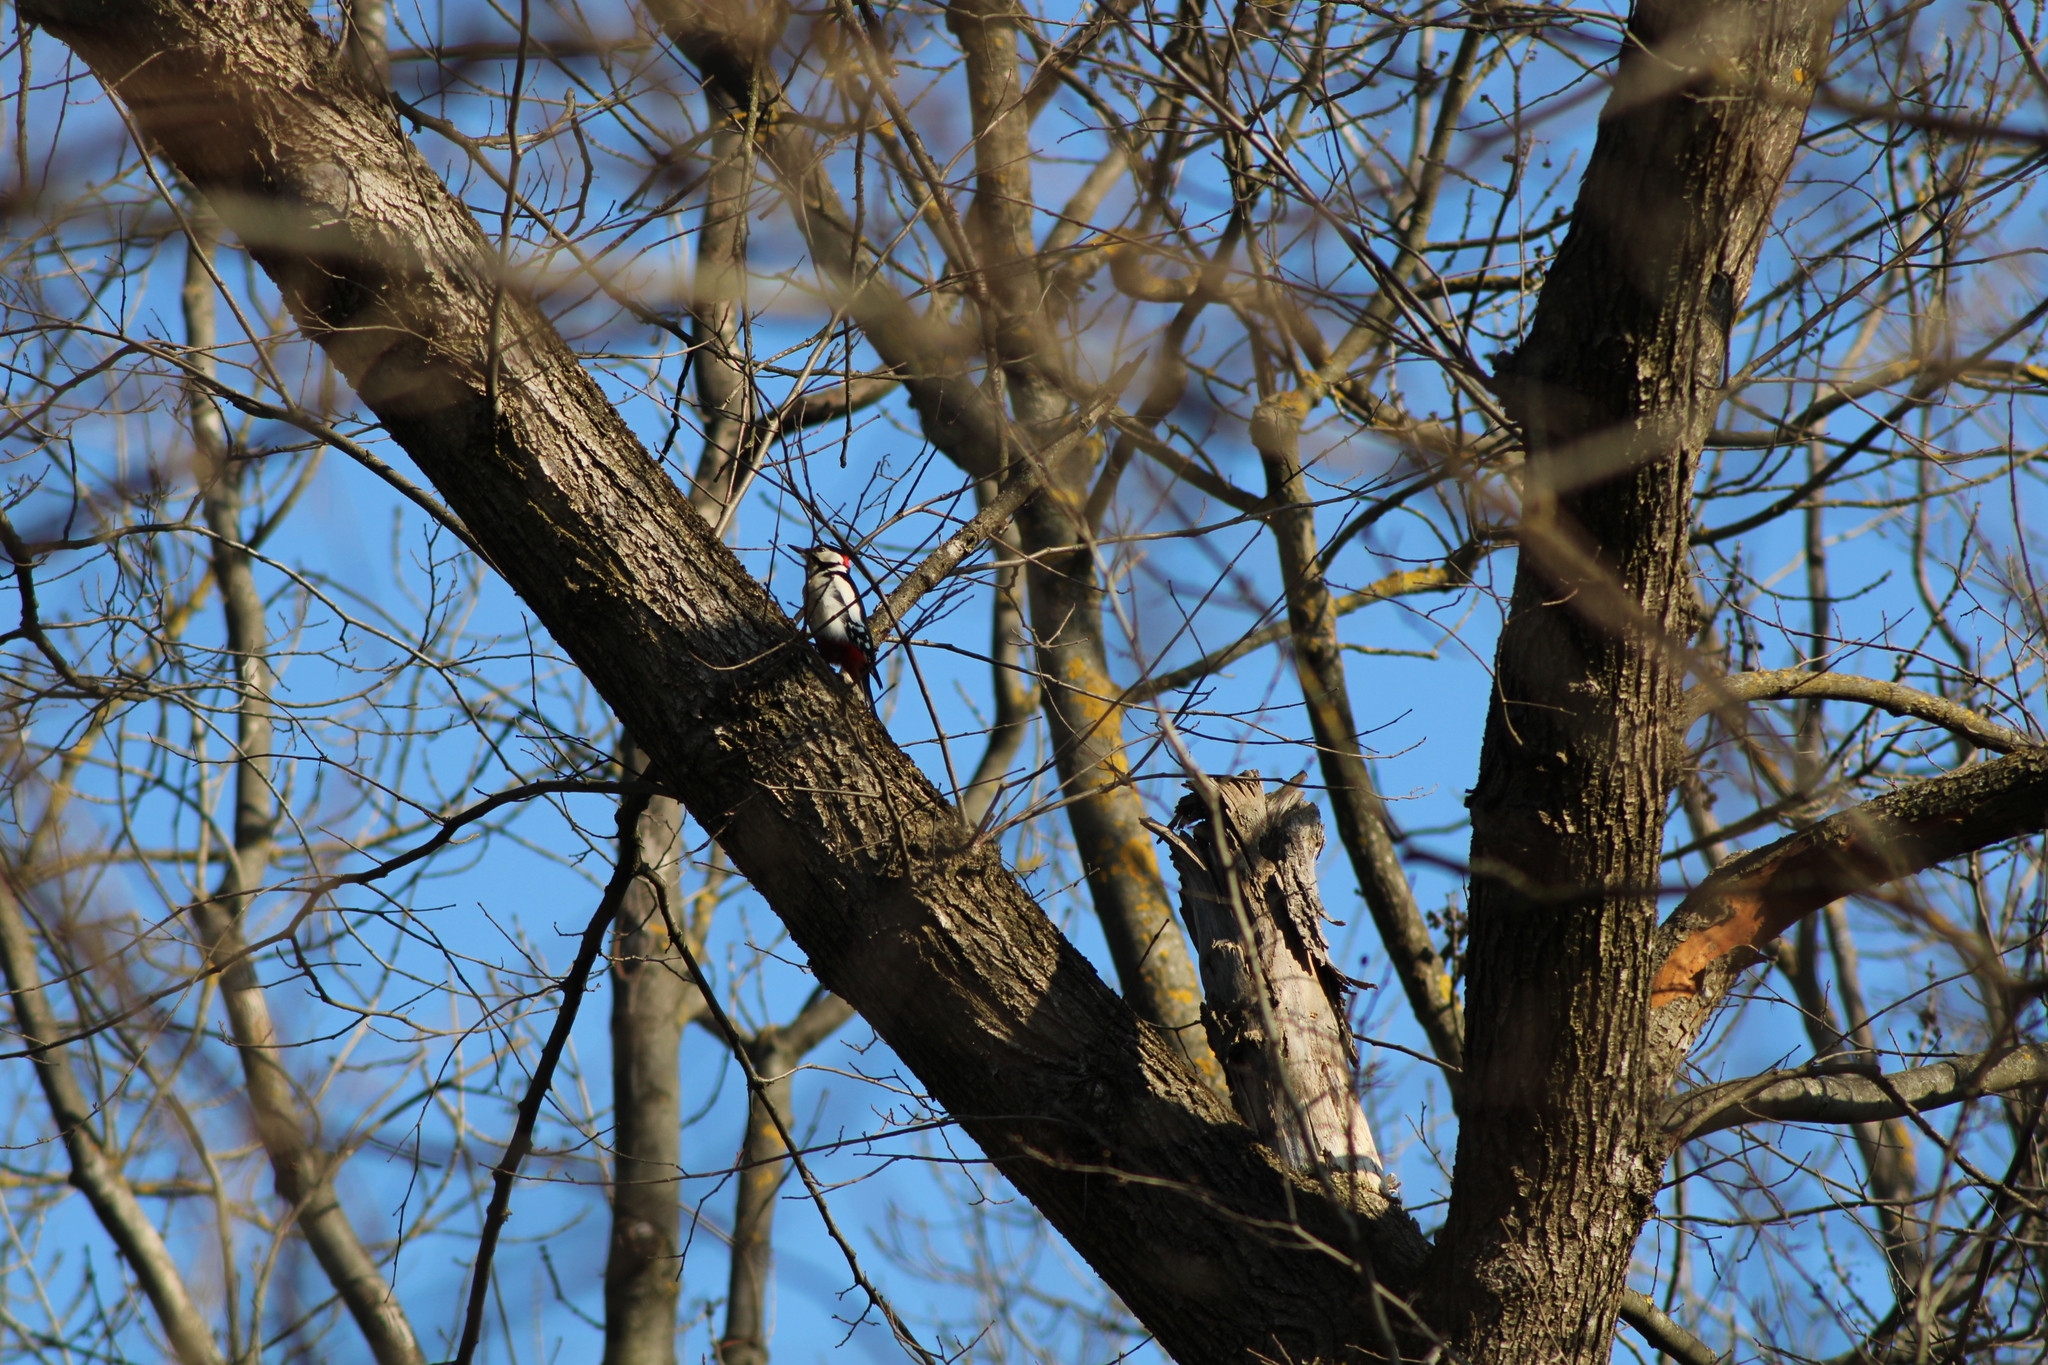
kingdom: Animalia
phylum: Chordata
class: Aves
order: Piciformes
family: Picidae
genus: Dendrocopos
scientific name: Dendrocopos major
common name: Great spotted woodpecker
